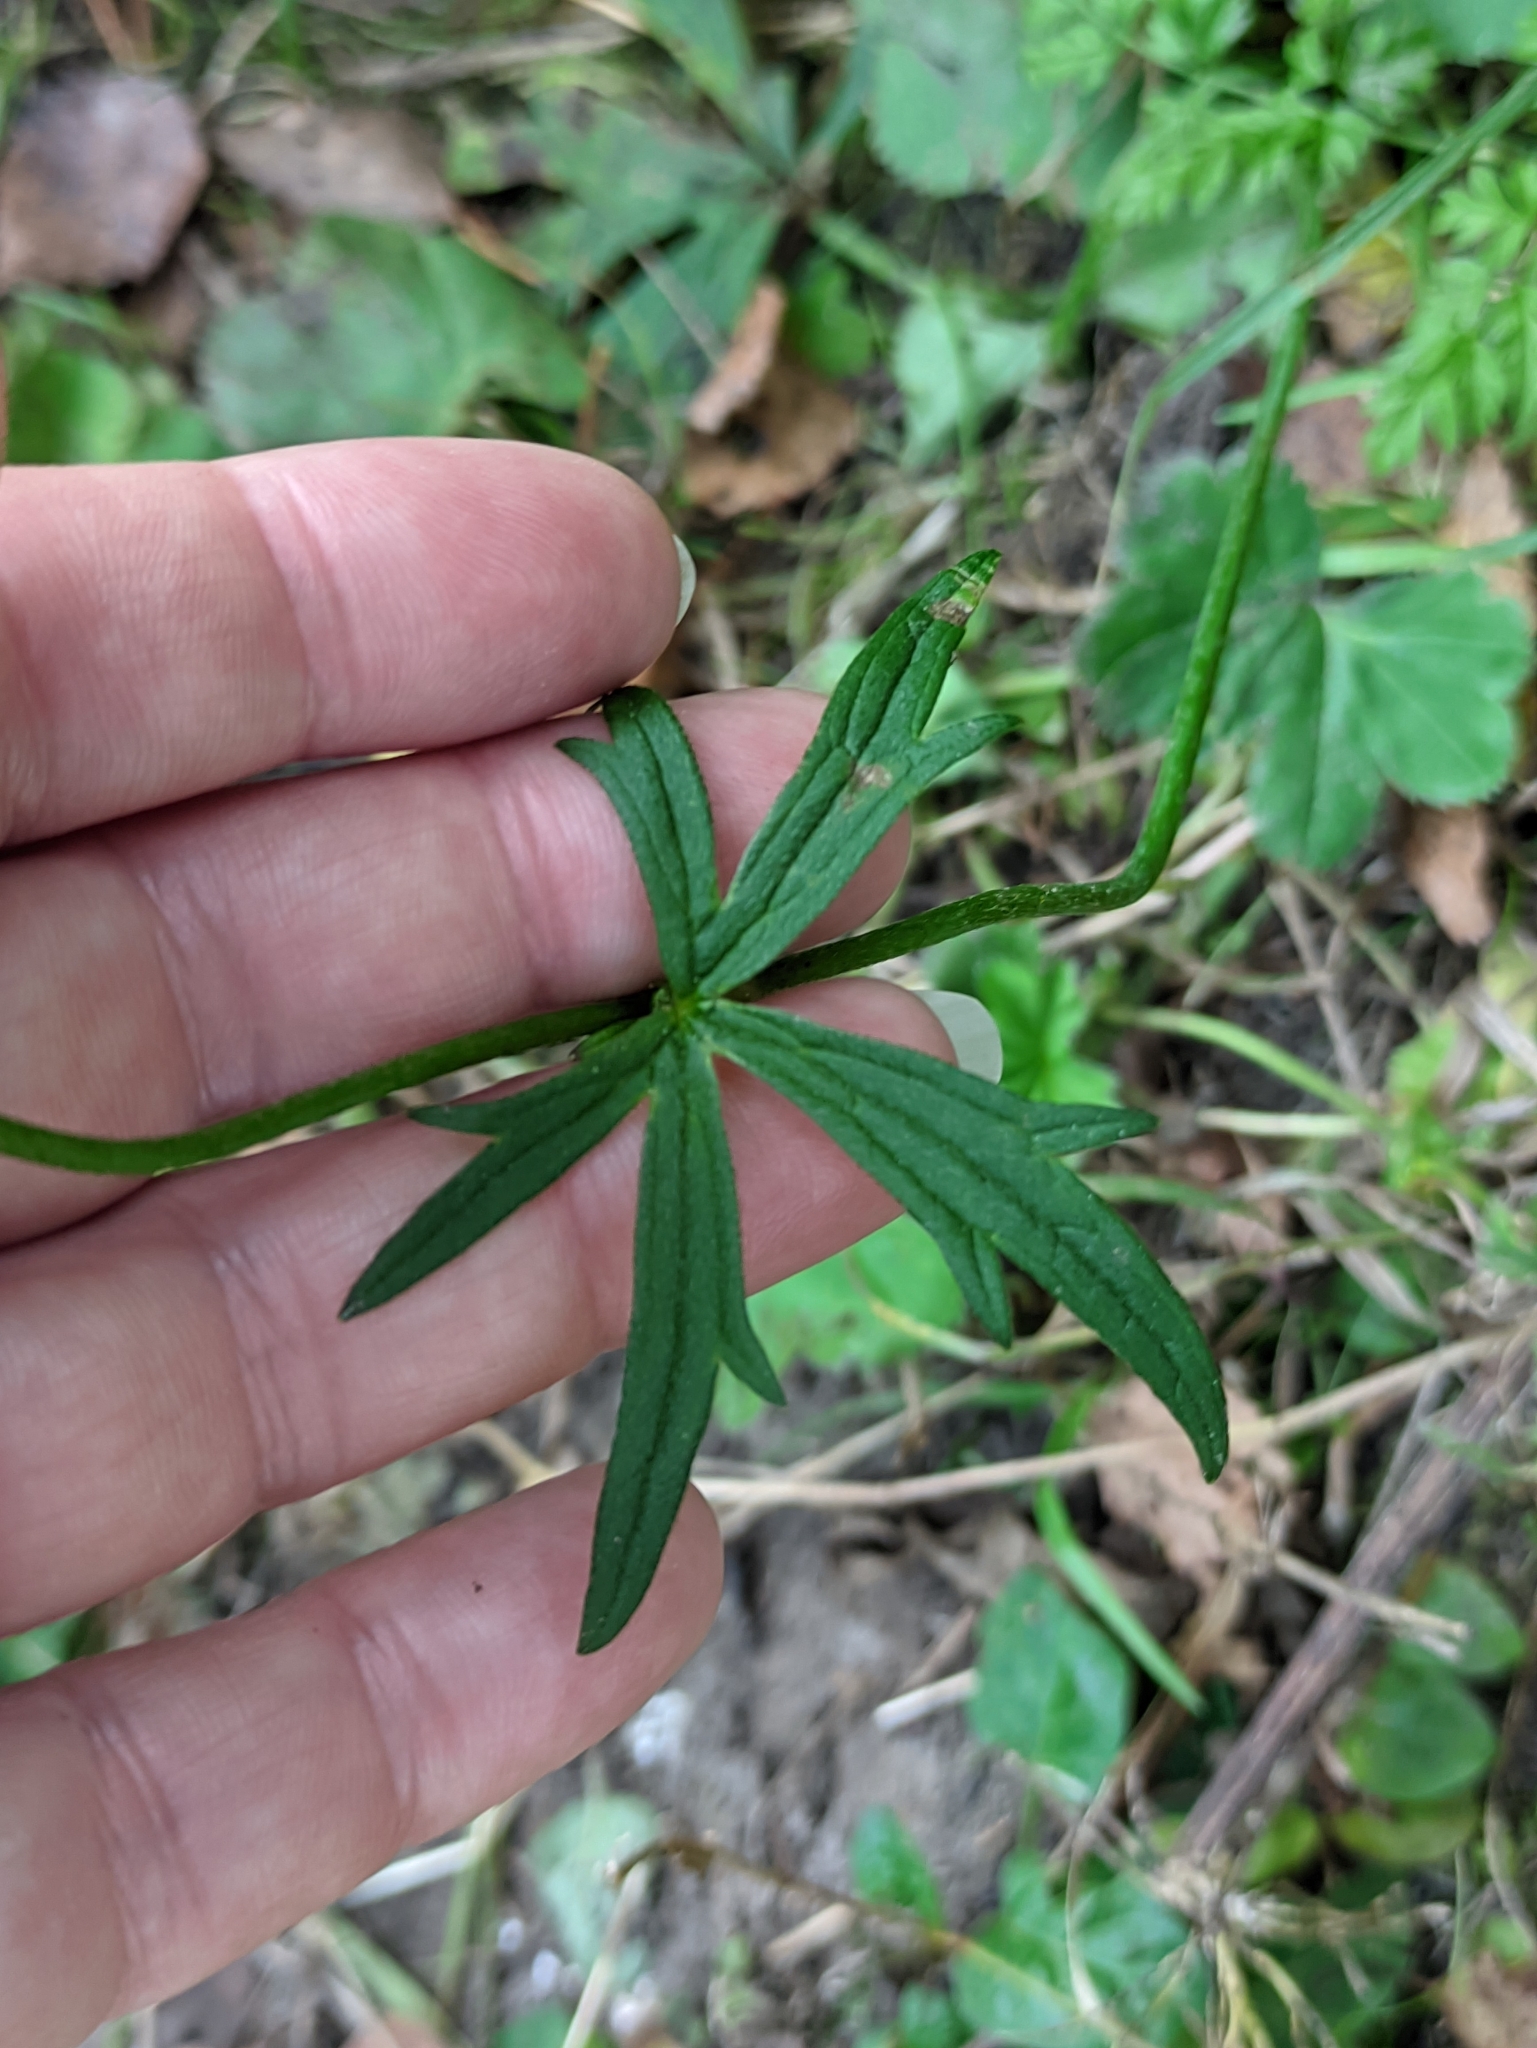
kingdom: Plantae
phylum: Tracheophyta
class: Magnoliopsida
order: Ranunculales
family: Ranunculaceae
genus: Ranunculus
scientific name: Ranunculus acris
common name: Meadow buttercup
